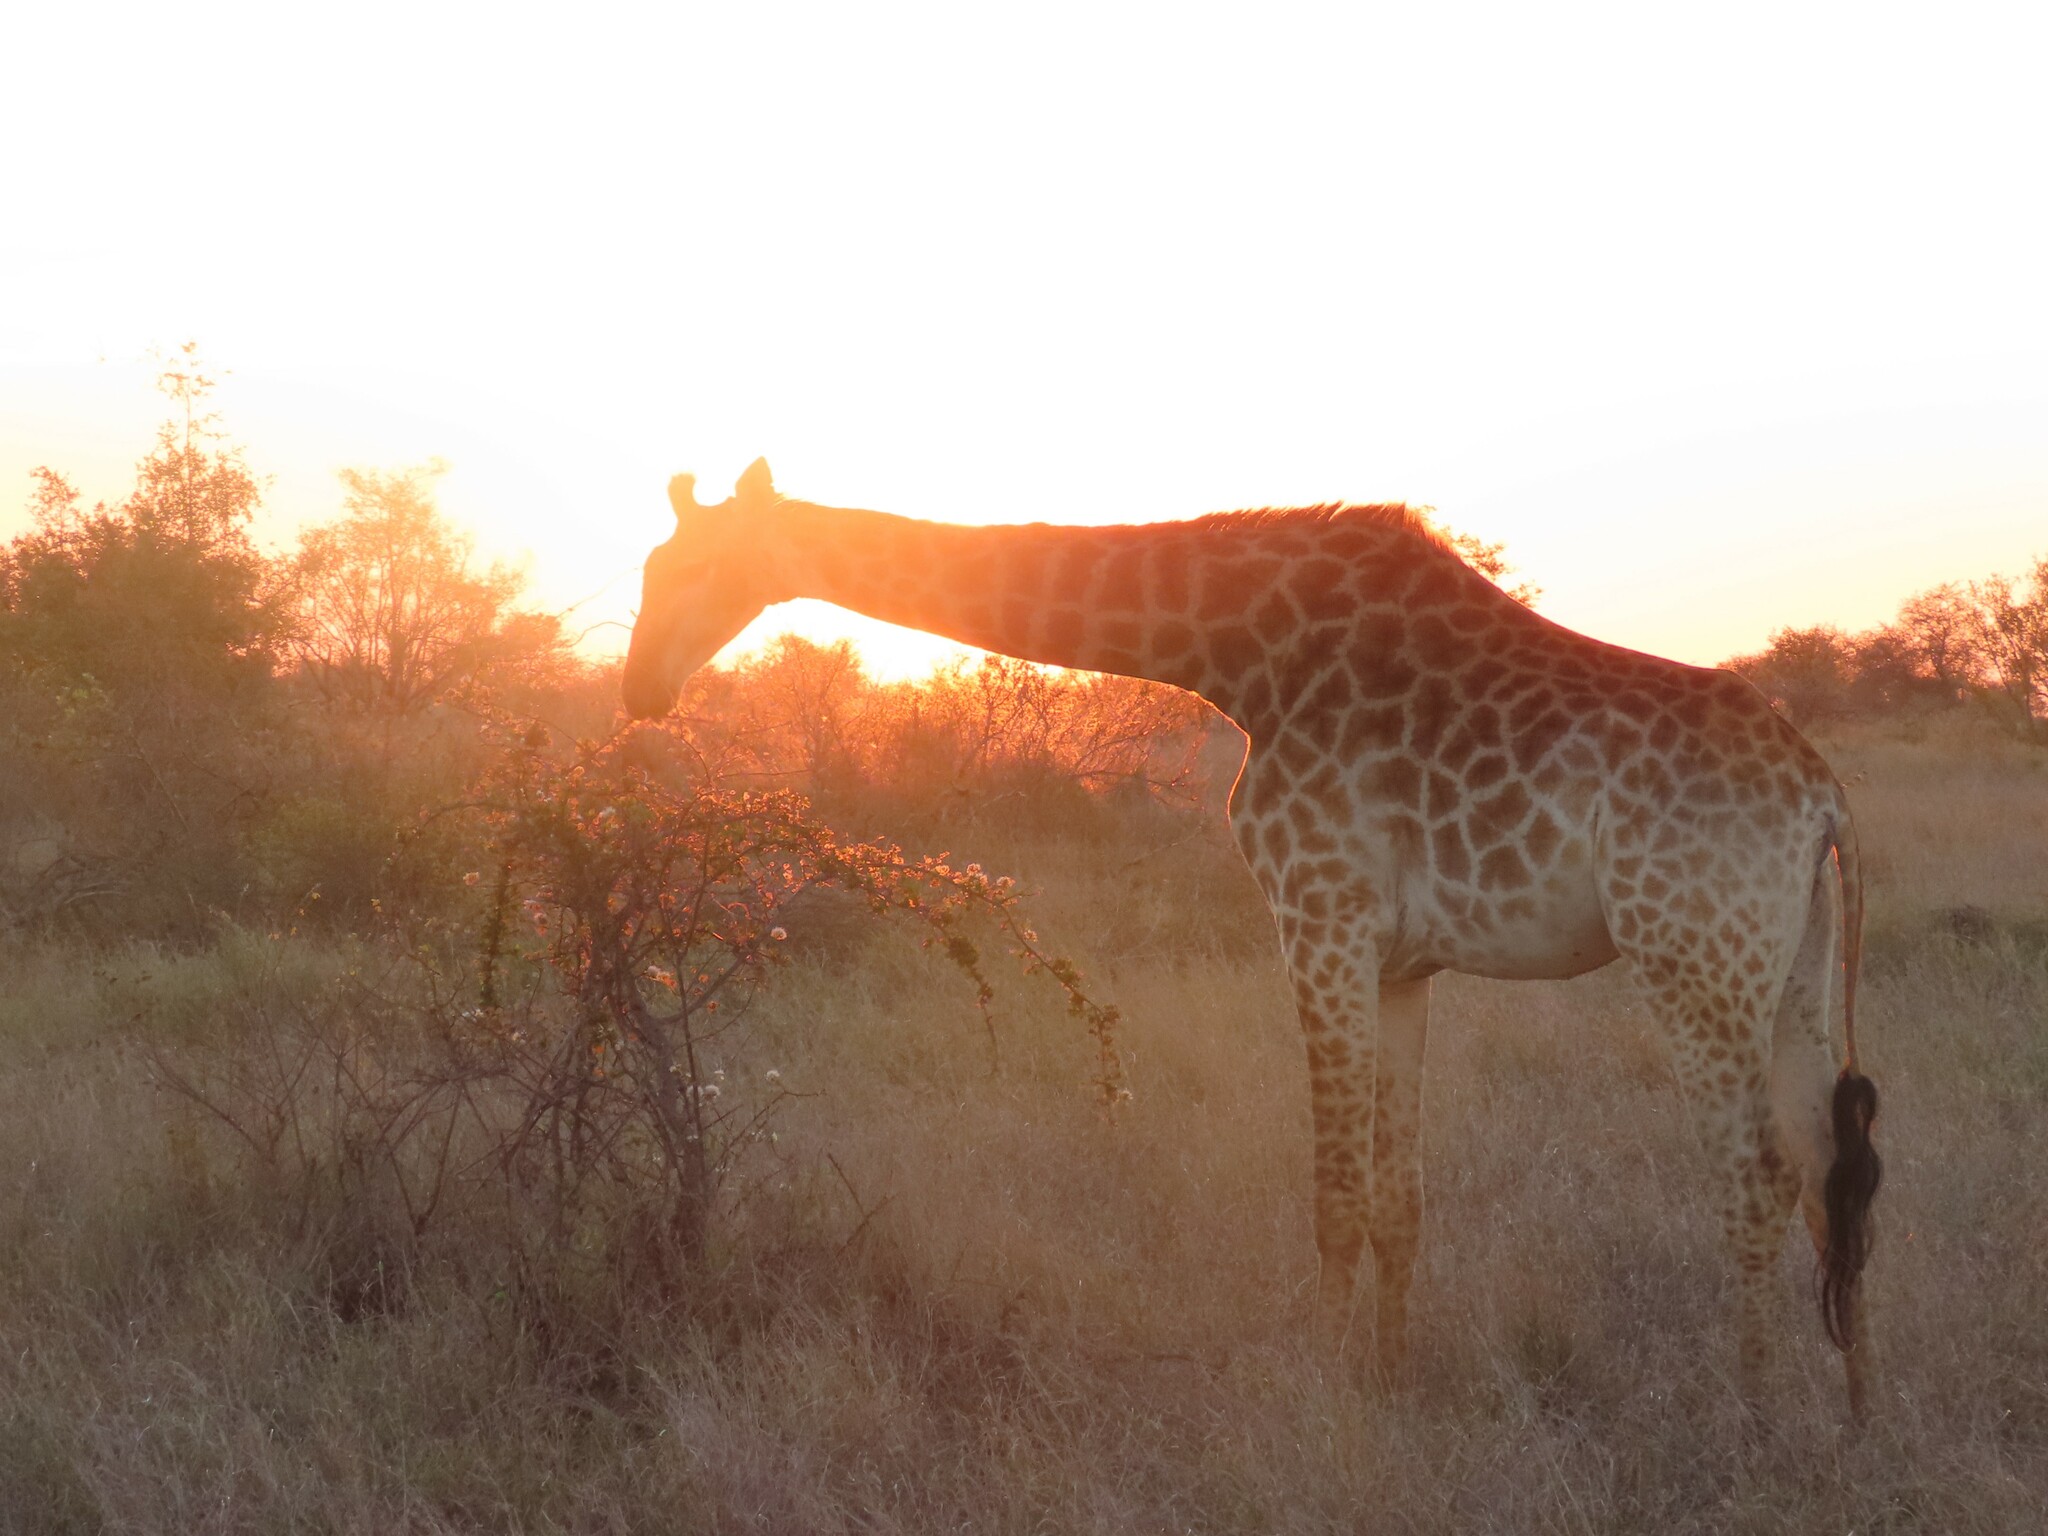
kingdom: Animalia
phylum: Chordata
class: Mammalia
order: Artiodactyla
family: Giraffidae
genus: Giraffa
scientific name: Giraffa giraffa
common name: Southern giraffe
